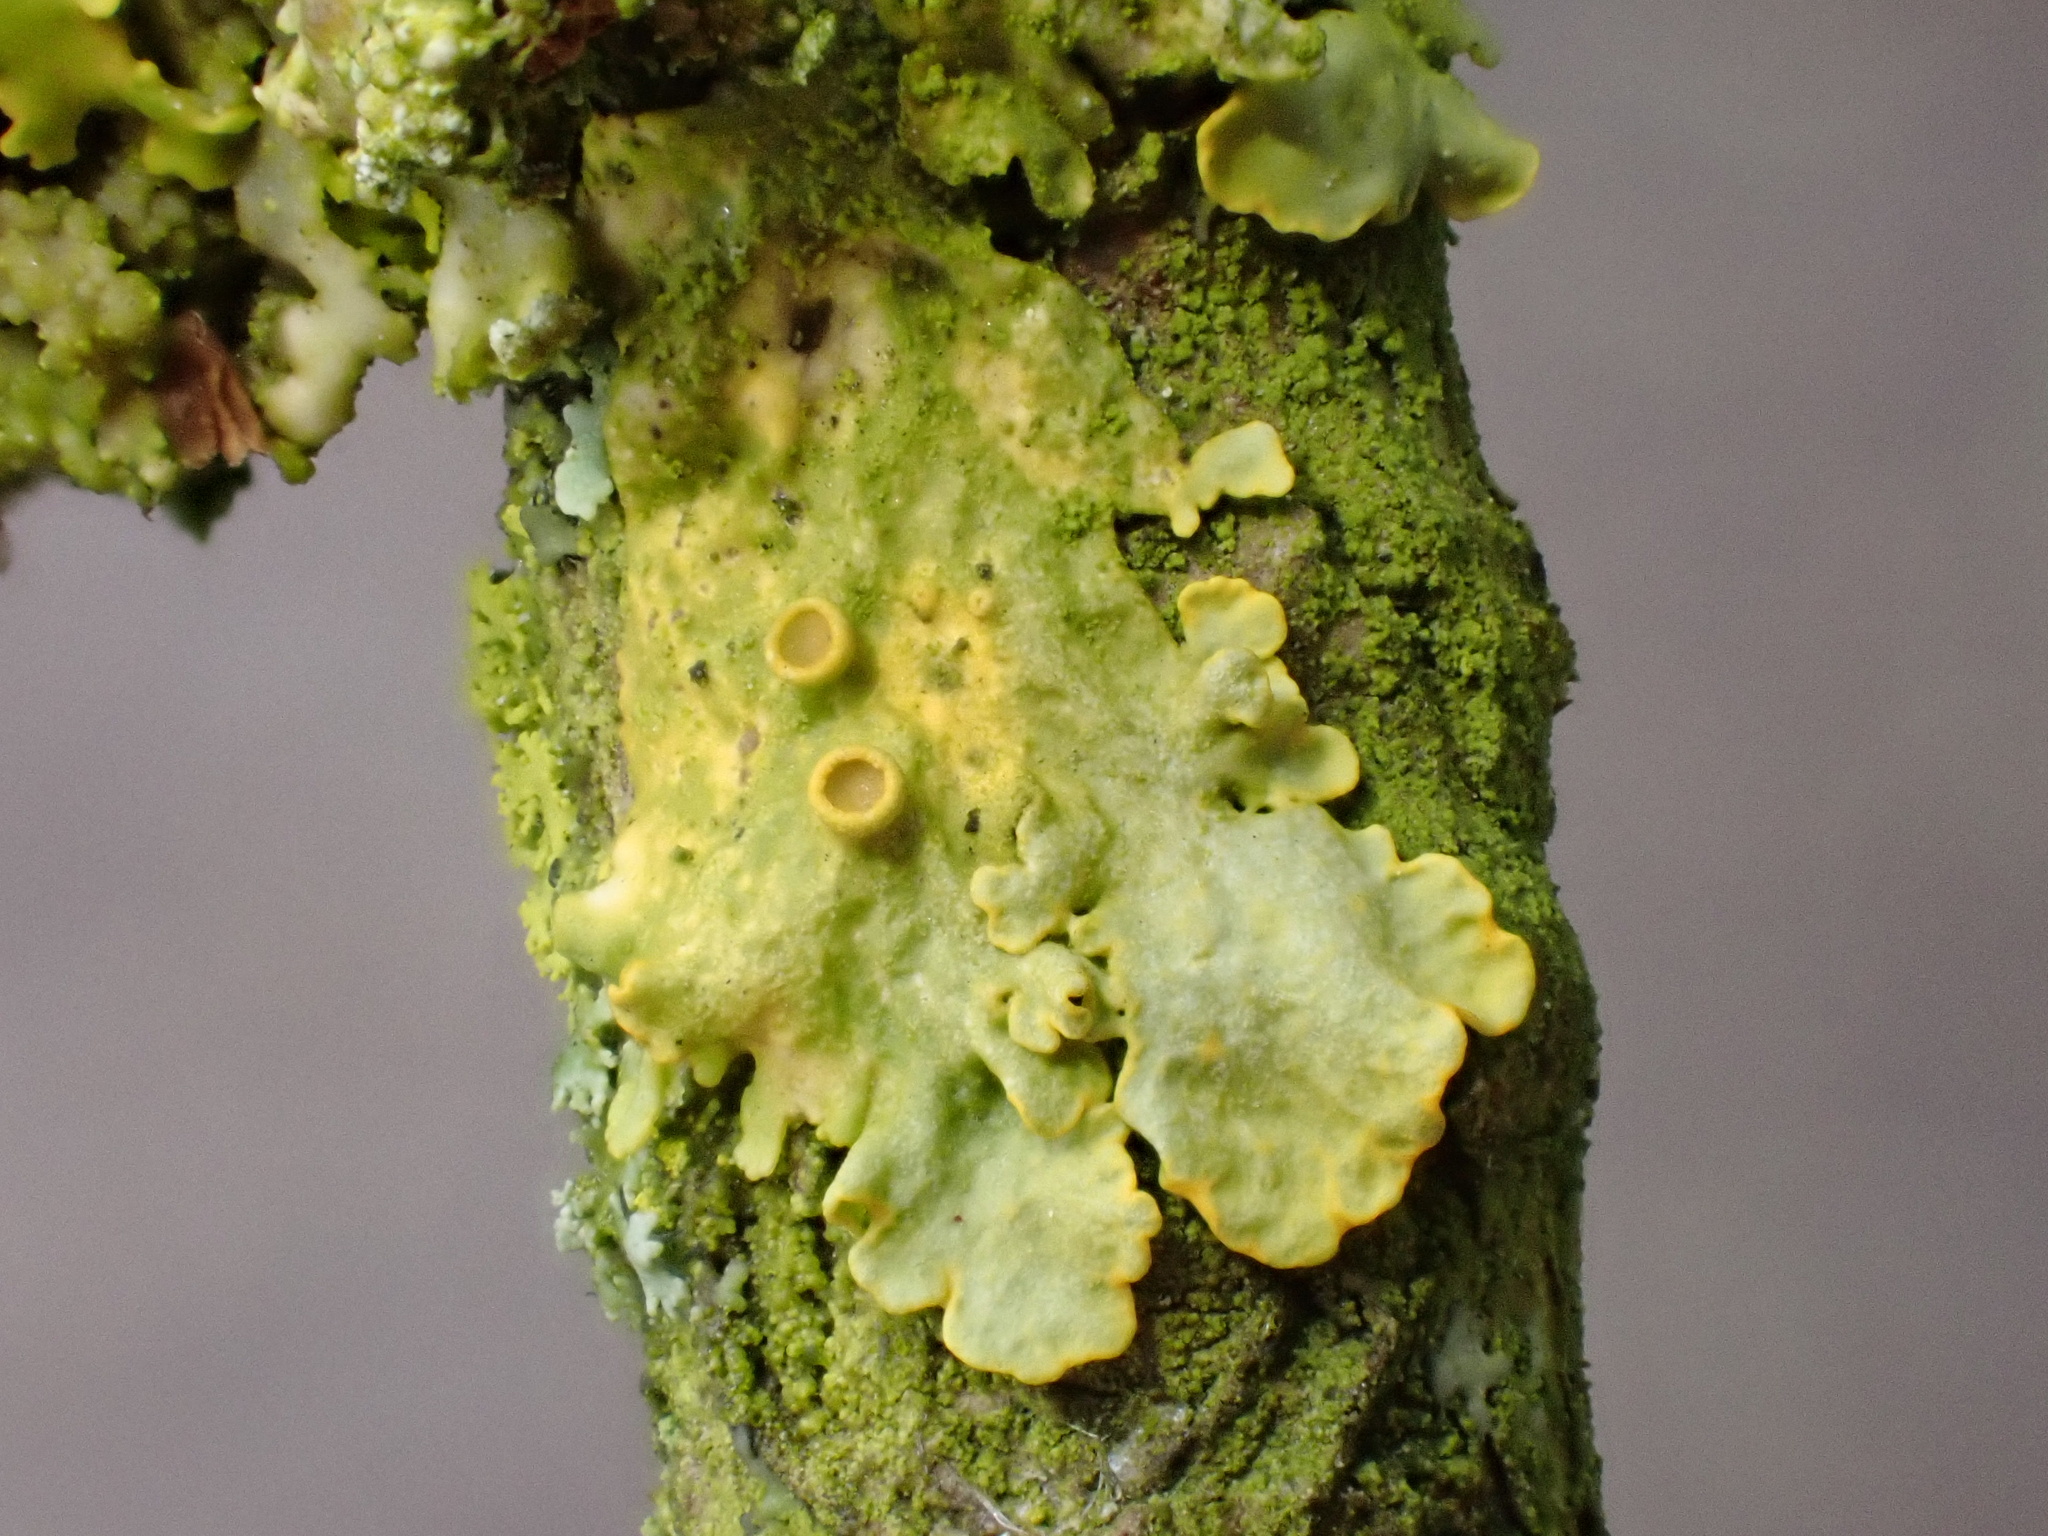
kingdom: Fungi
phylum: Ascomycota
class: Lecanoromycetes
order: Teloschistales
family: Teloschistaceae
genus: Xanthoria
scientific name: Xanthoria parietina
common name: Common orange lichen
